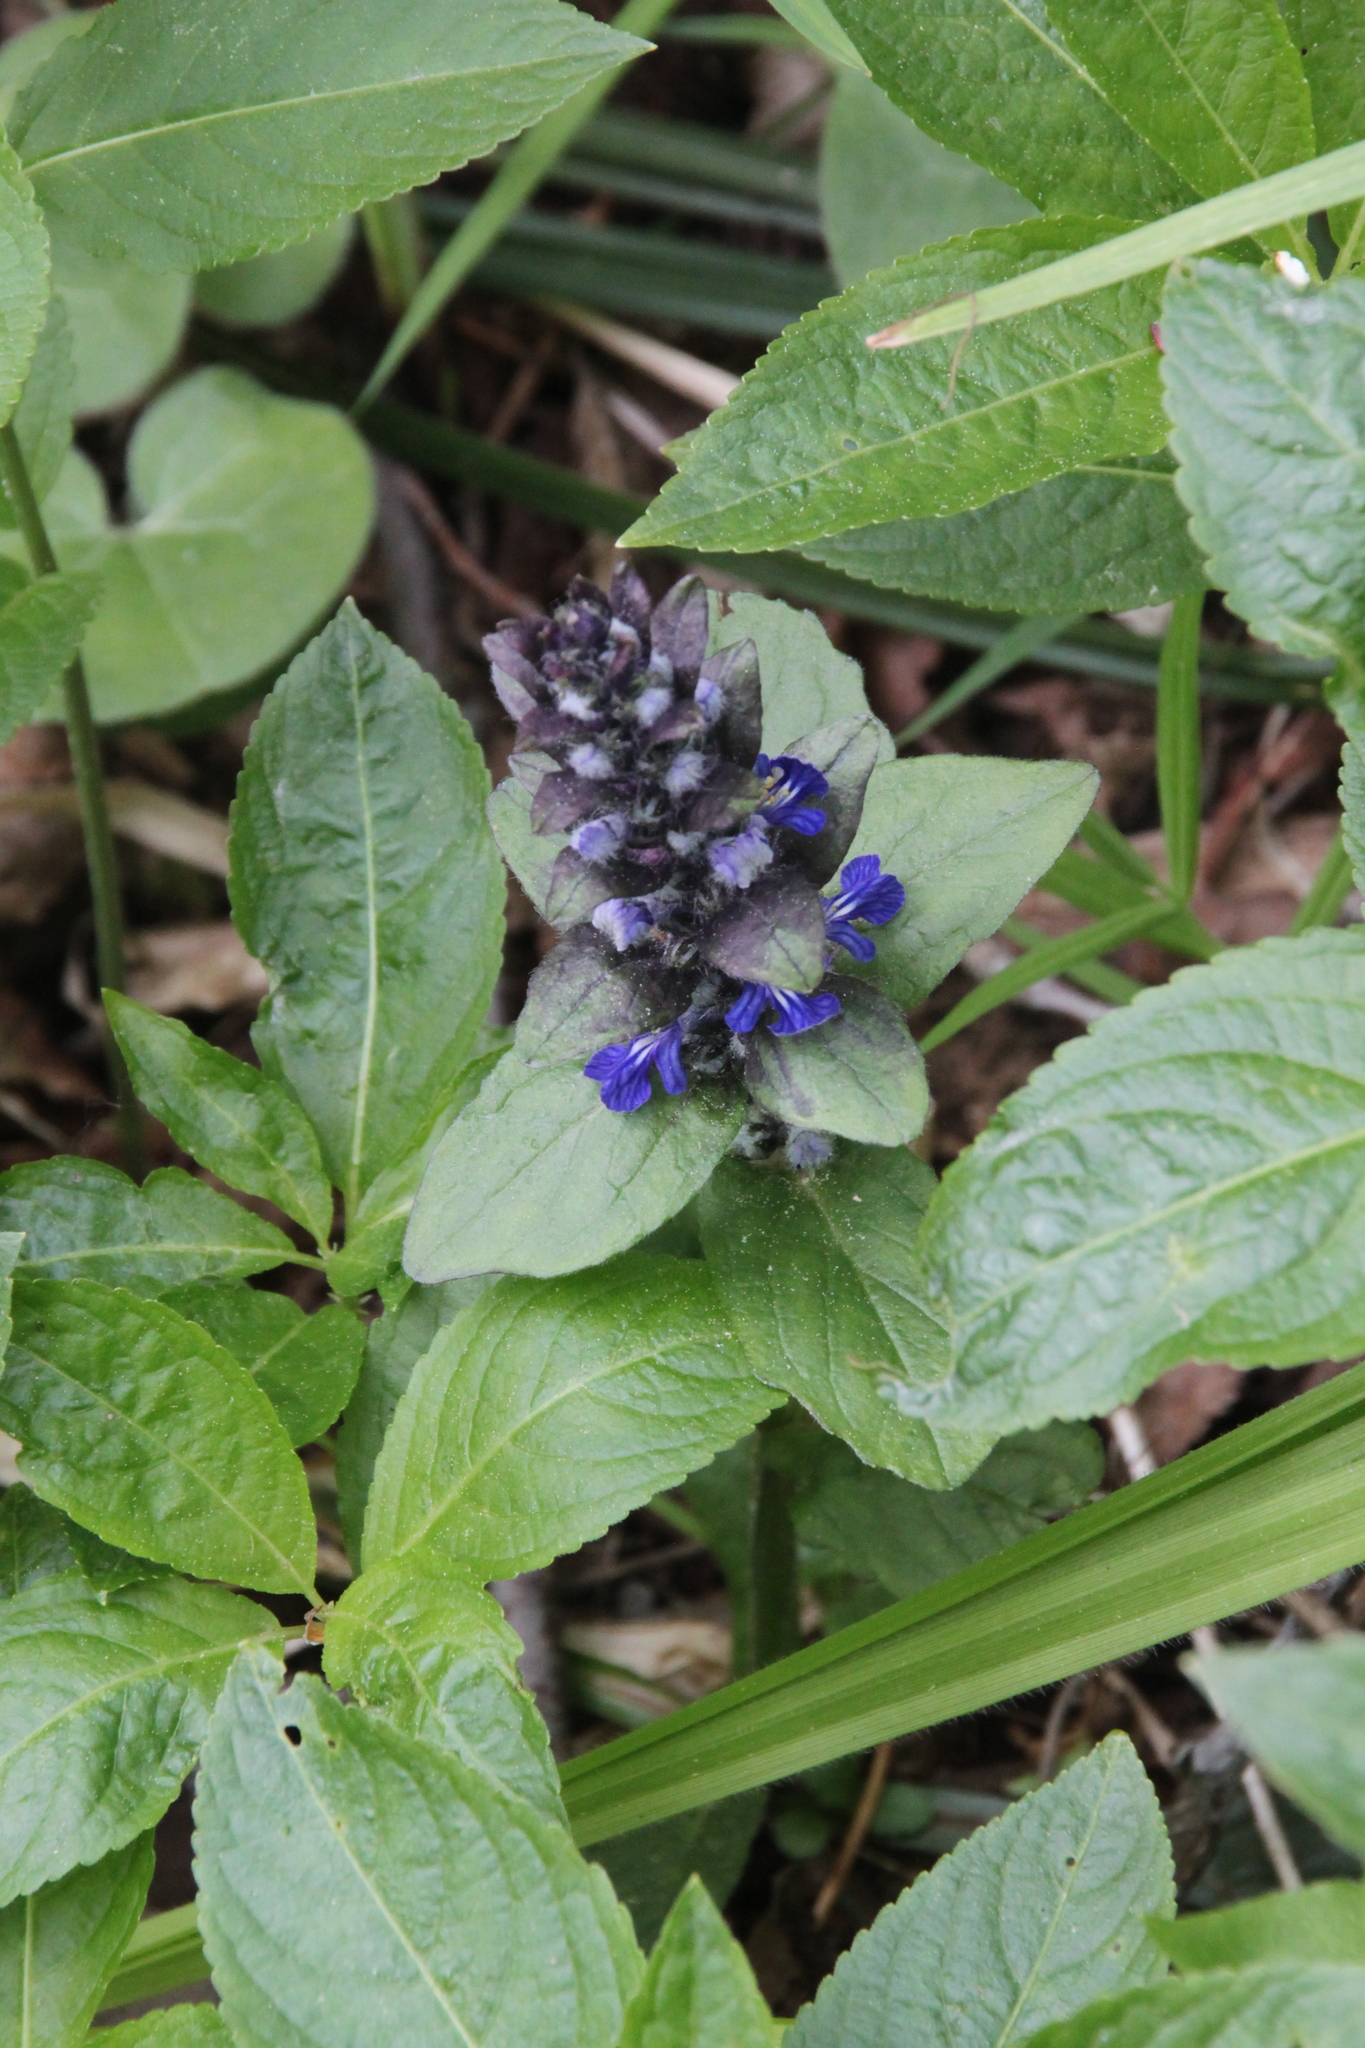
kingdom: Plantae
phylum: Tracheophyta
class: Magnoliopsida
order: Lamiales
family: Lamiaceae
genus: Ajuga
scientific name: Ajuga reptans
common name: Bugle
